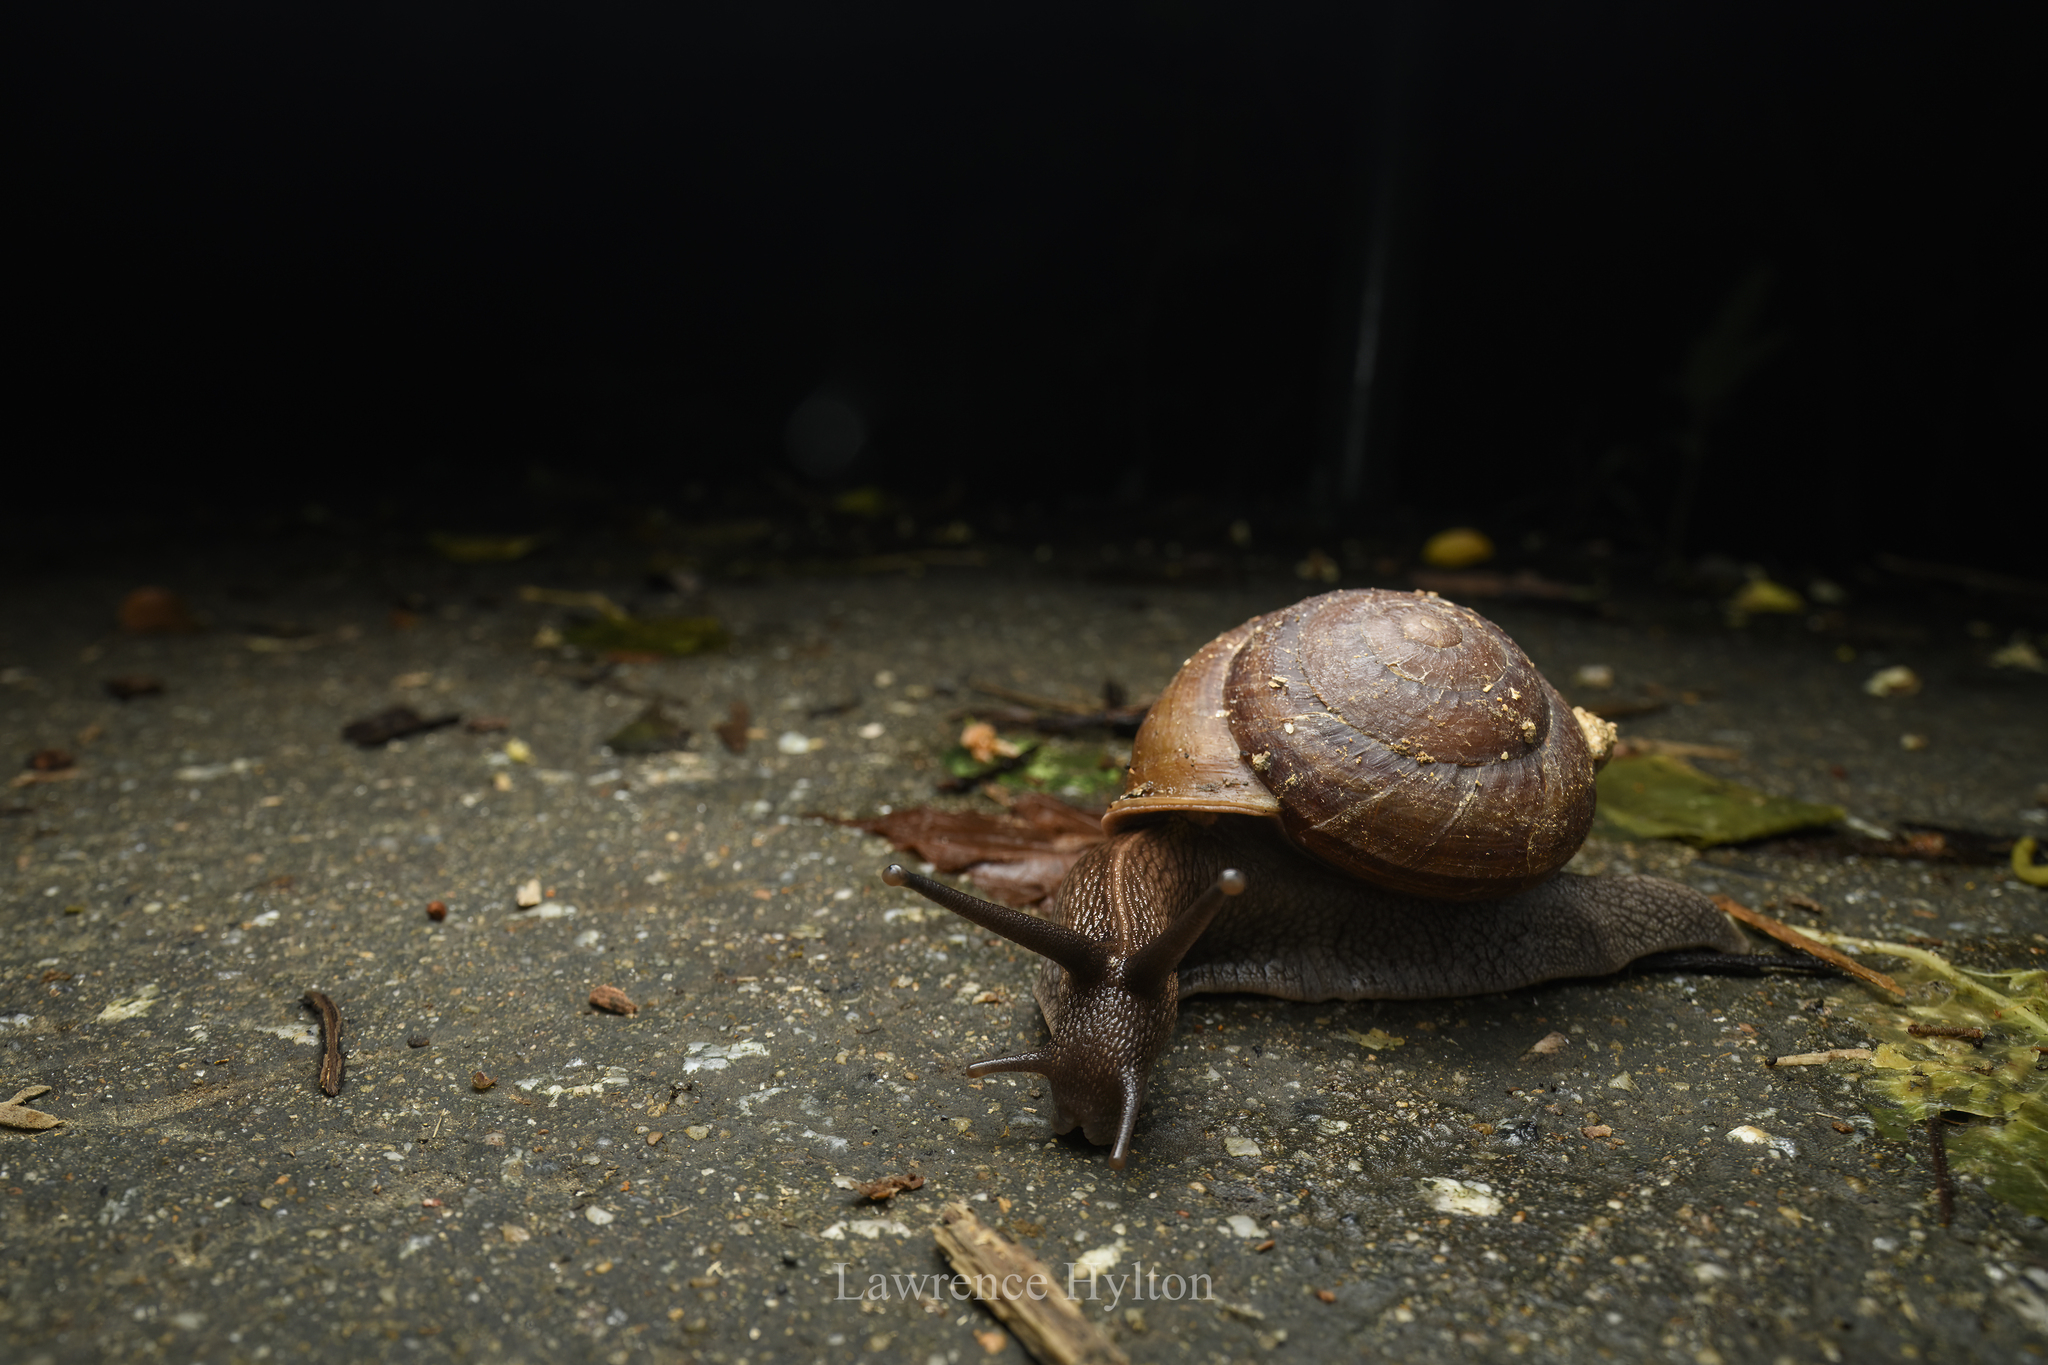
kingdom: Animalia
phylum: Mollusca
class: Gastropoda
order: Stylommatophora
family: Camaenidae
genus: Camaena
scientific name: Camaena cicatricosa
